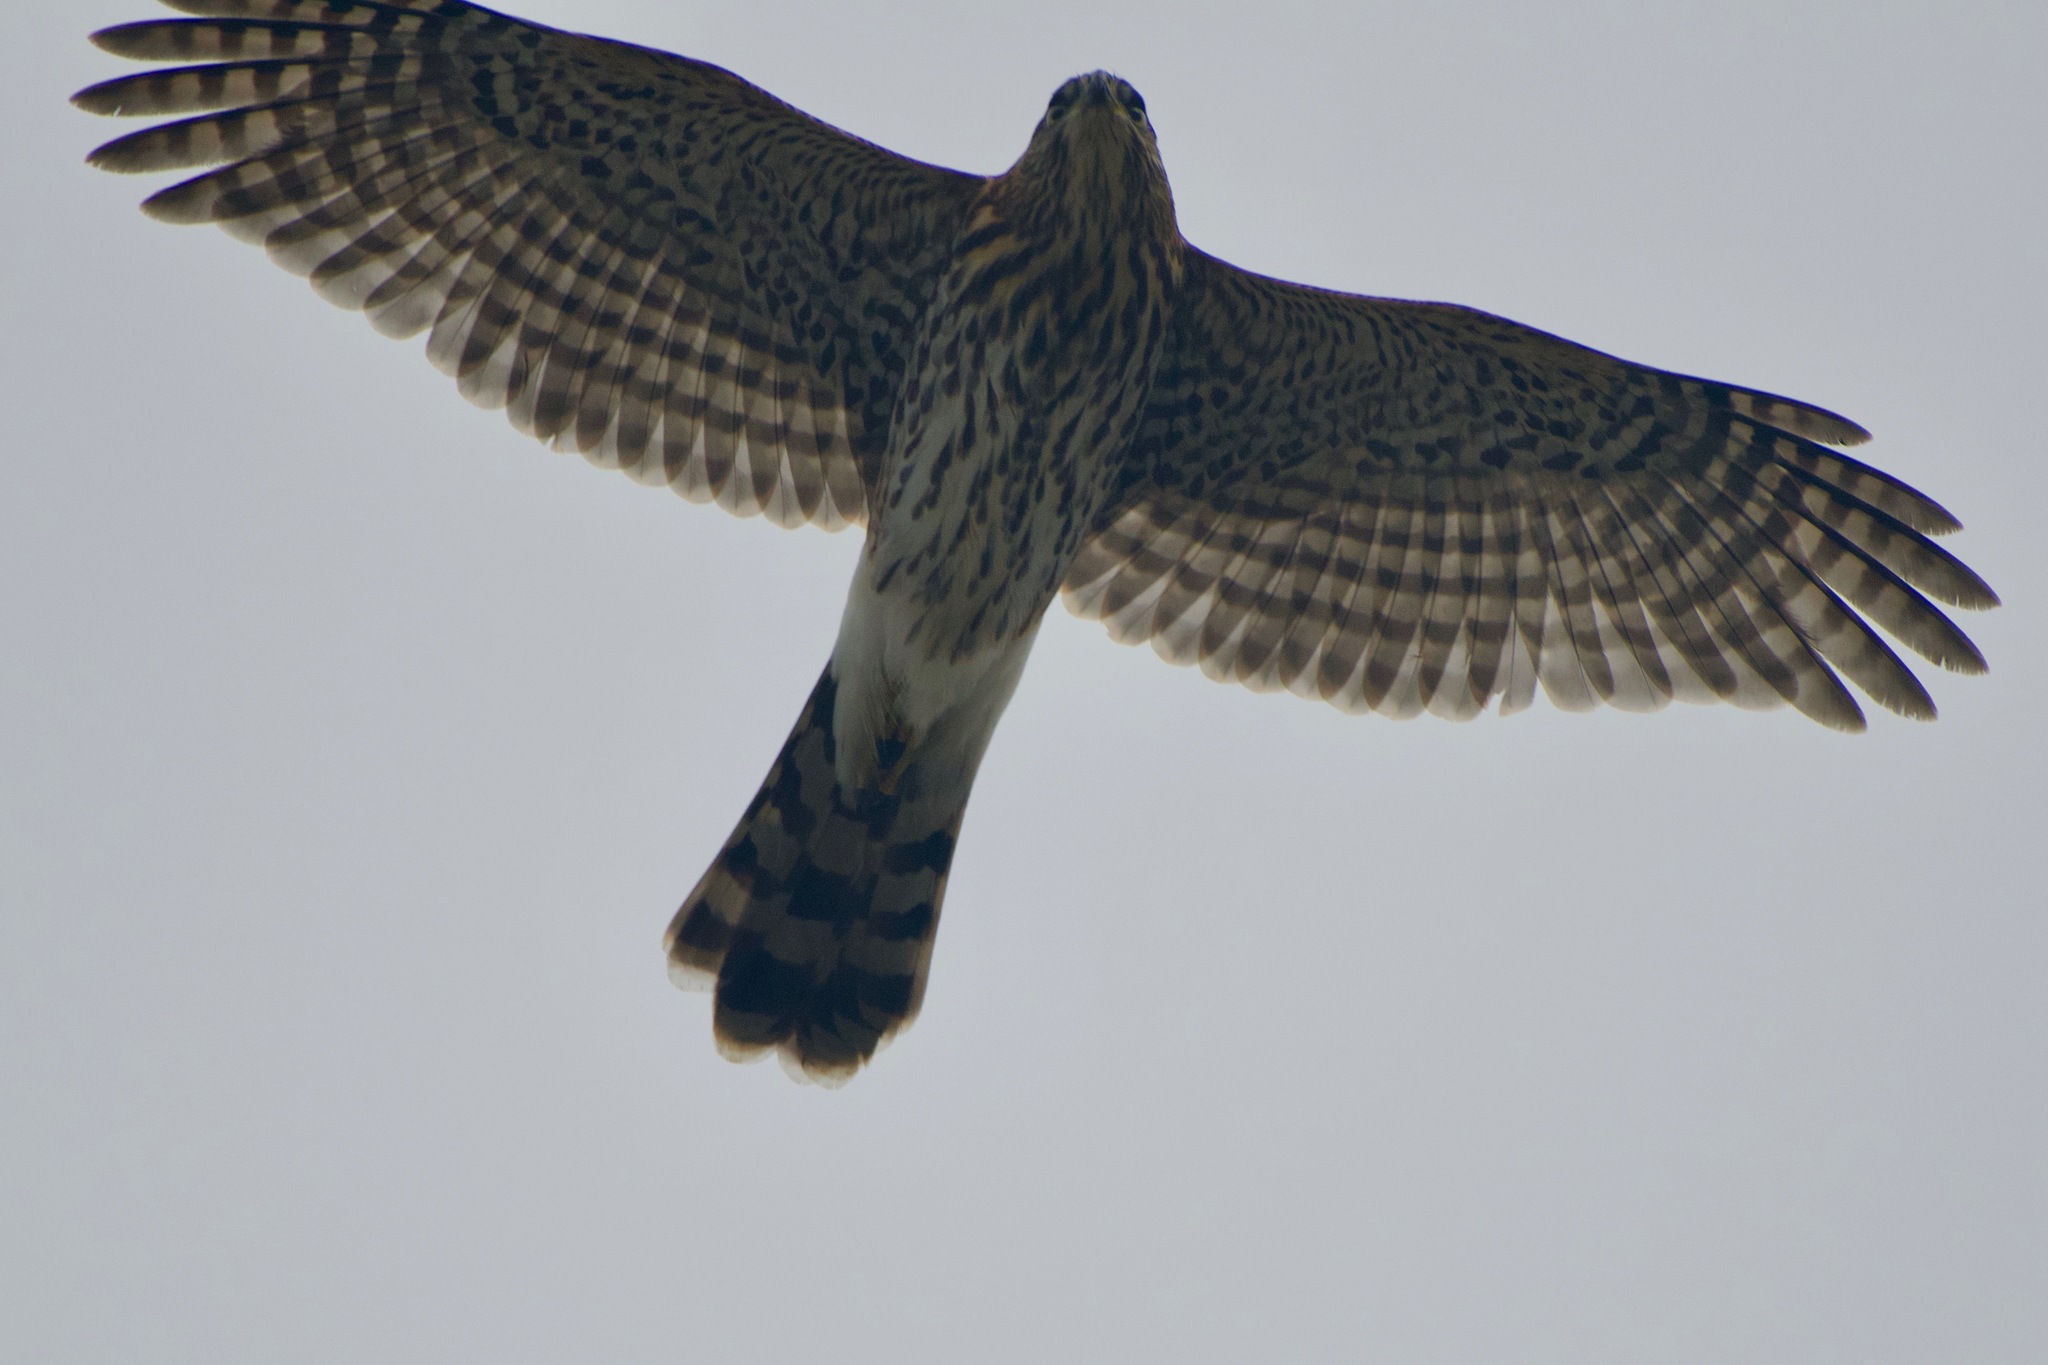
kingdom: Animalia
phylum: Chordata
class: Aves
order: Accipitriformes
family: Accipitridae
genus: Accipiter
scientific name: Accipiter cooperii
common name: Cooper's hawk
